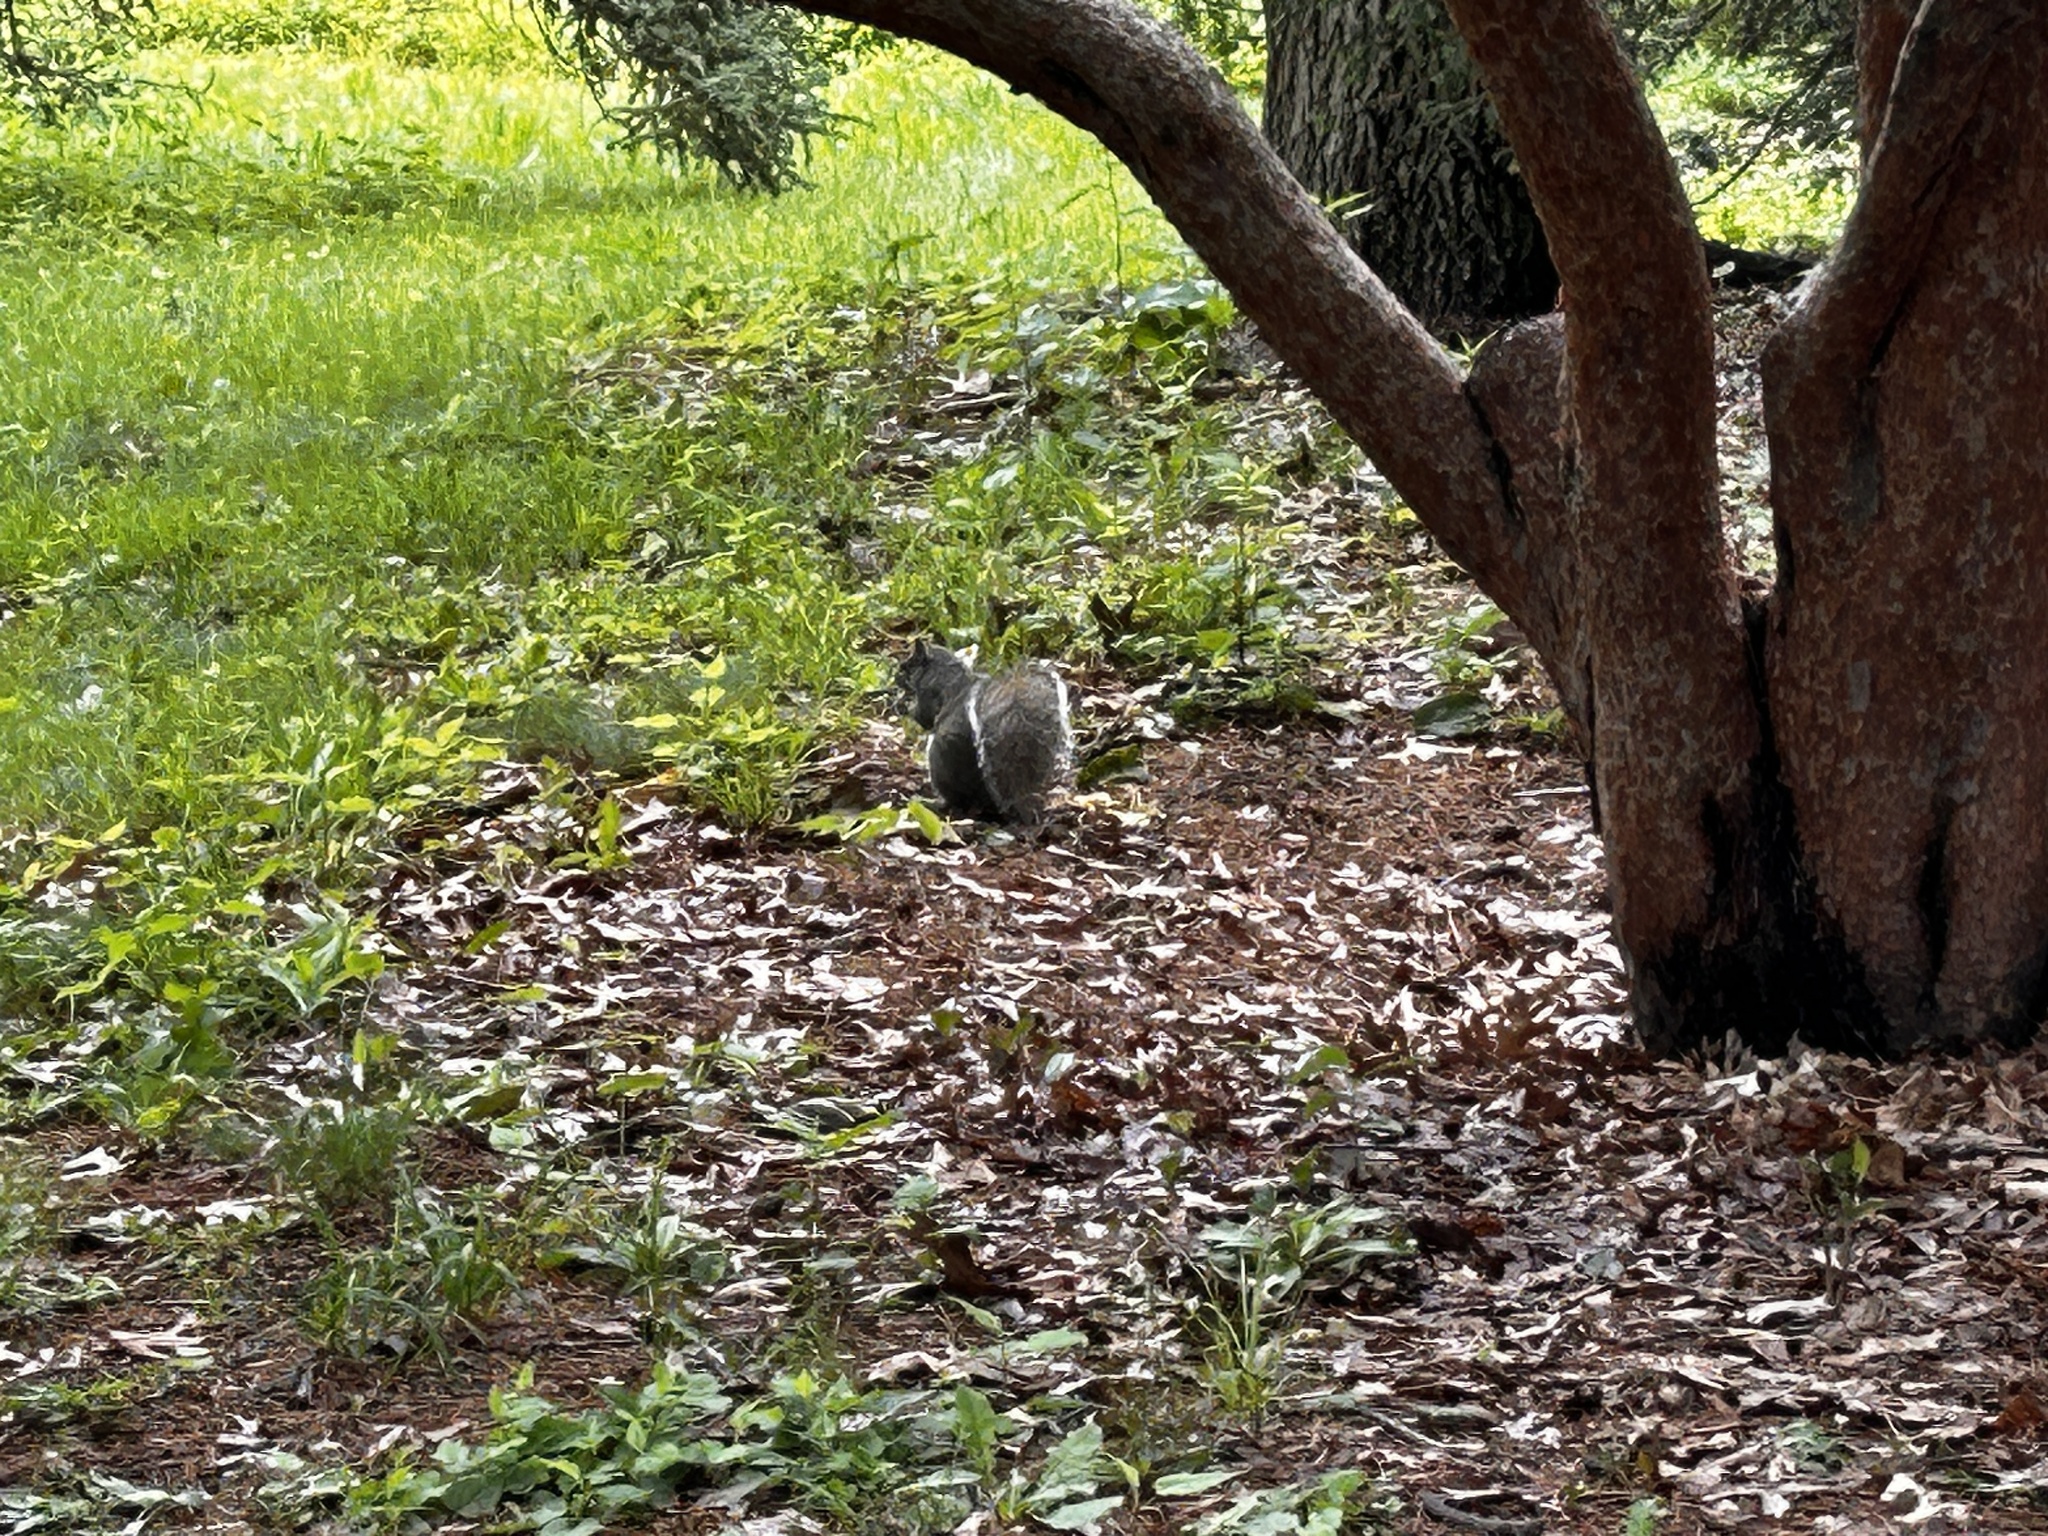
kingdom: Animalia
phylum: Chordata
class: Mammalia
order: Rodentia
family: Sciuridae
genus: Sciurus
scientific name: Sciurus carolinensis
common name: Eastern gray squirrel
